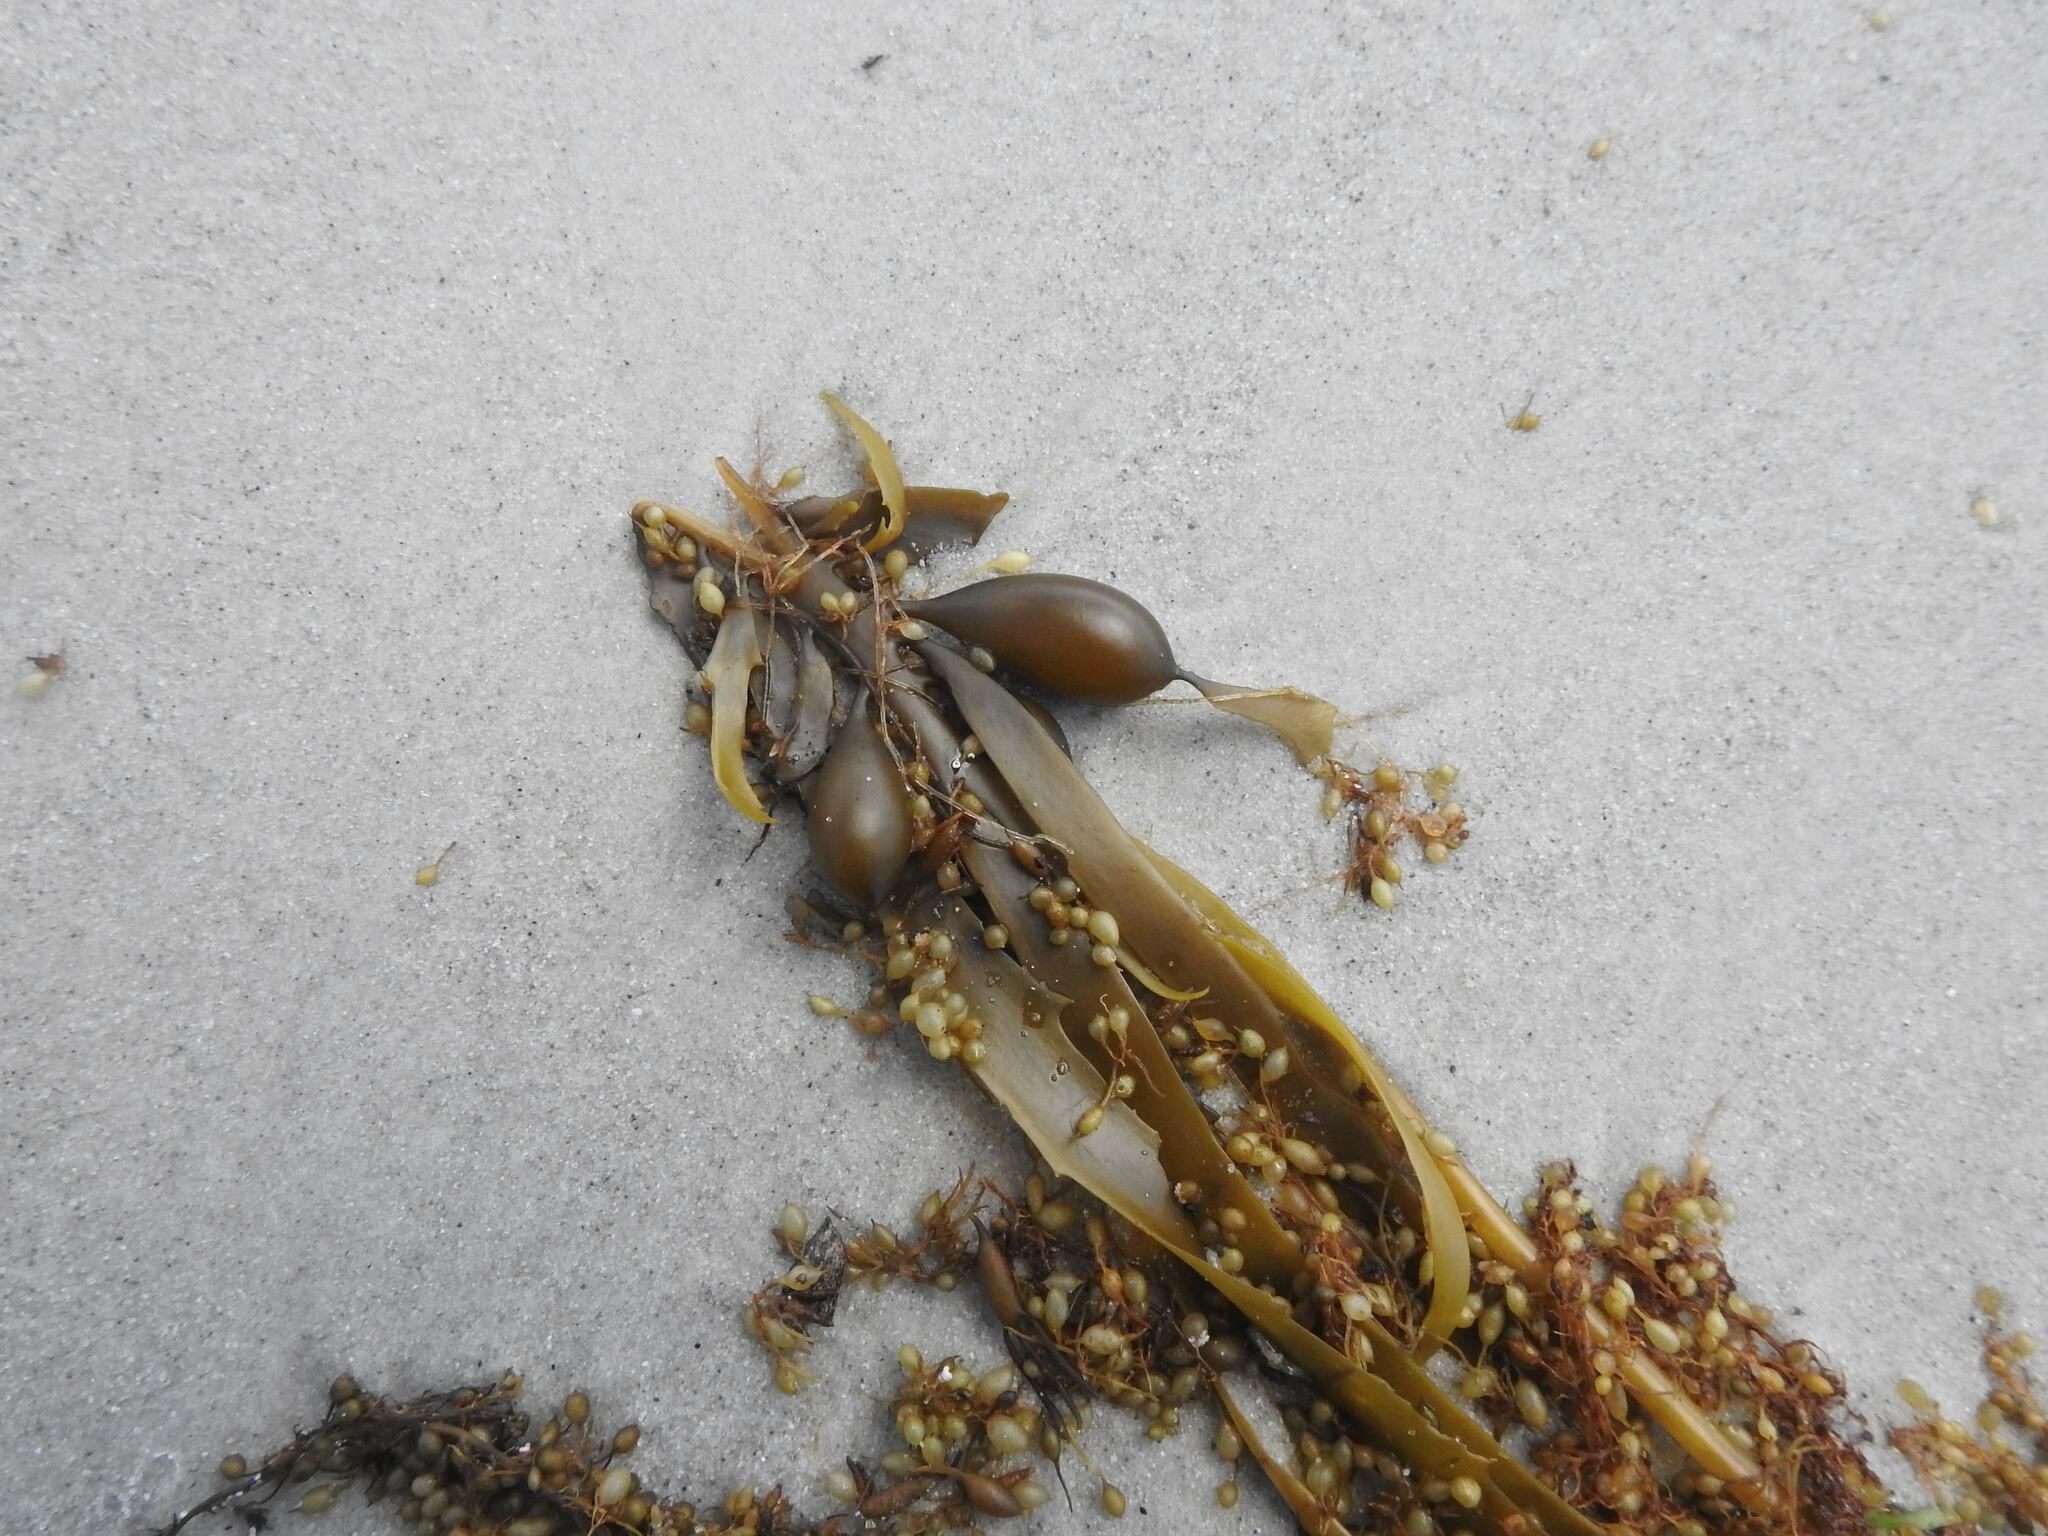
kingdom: Chromista
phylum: Ochrophyta
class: Phaeophyceae
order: Fucales
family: Seirococcaceae
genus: Phyllospora
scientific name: Phyllospora
